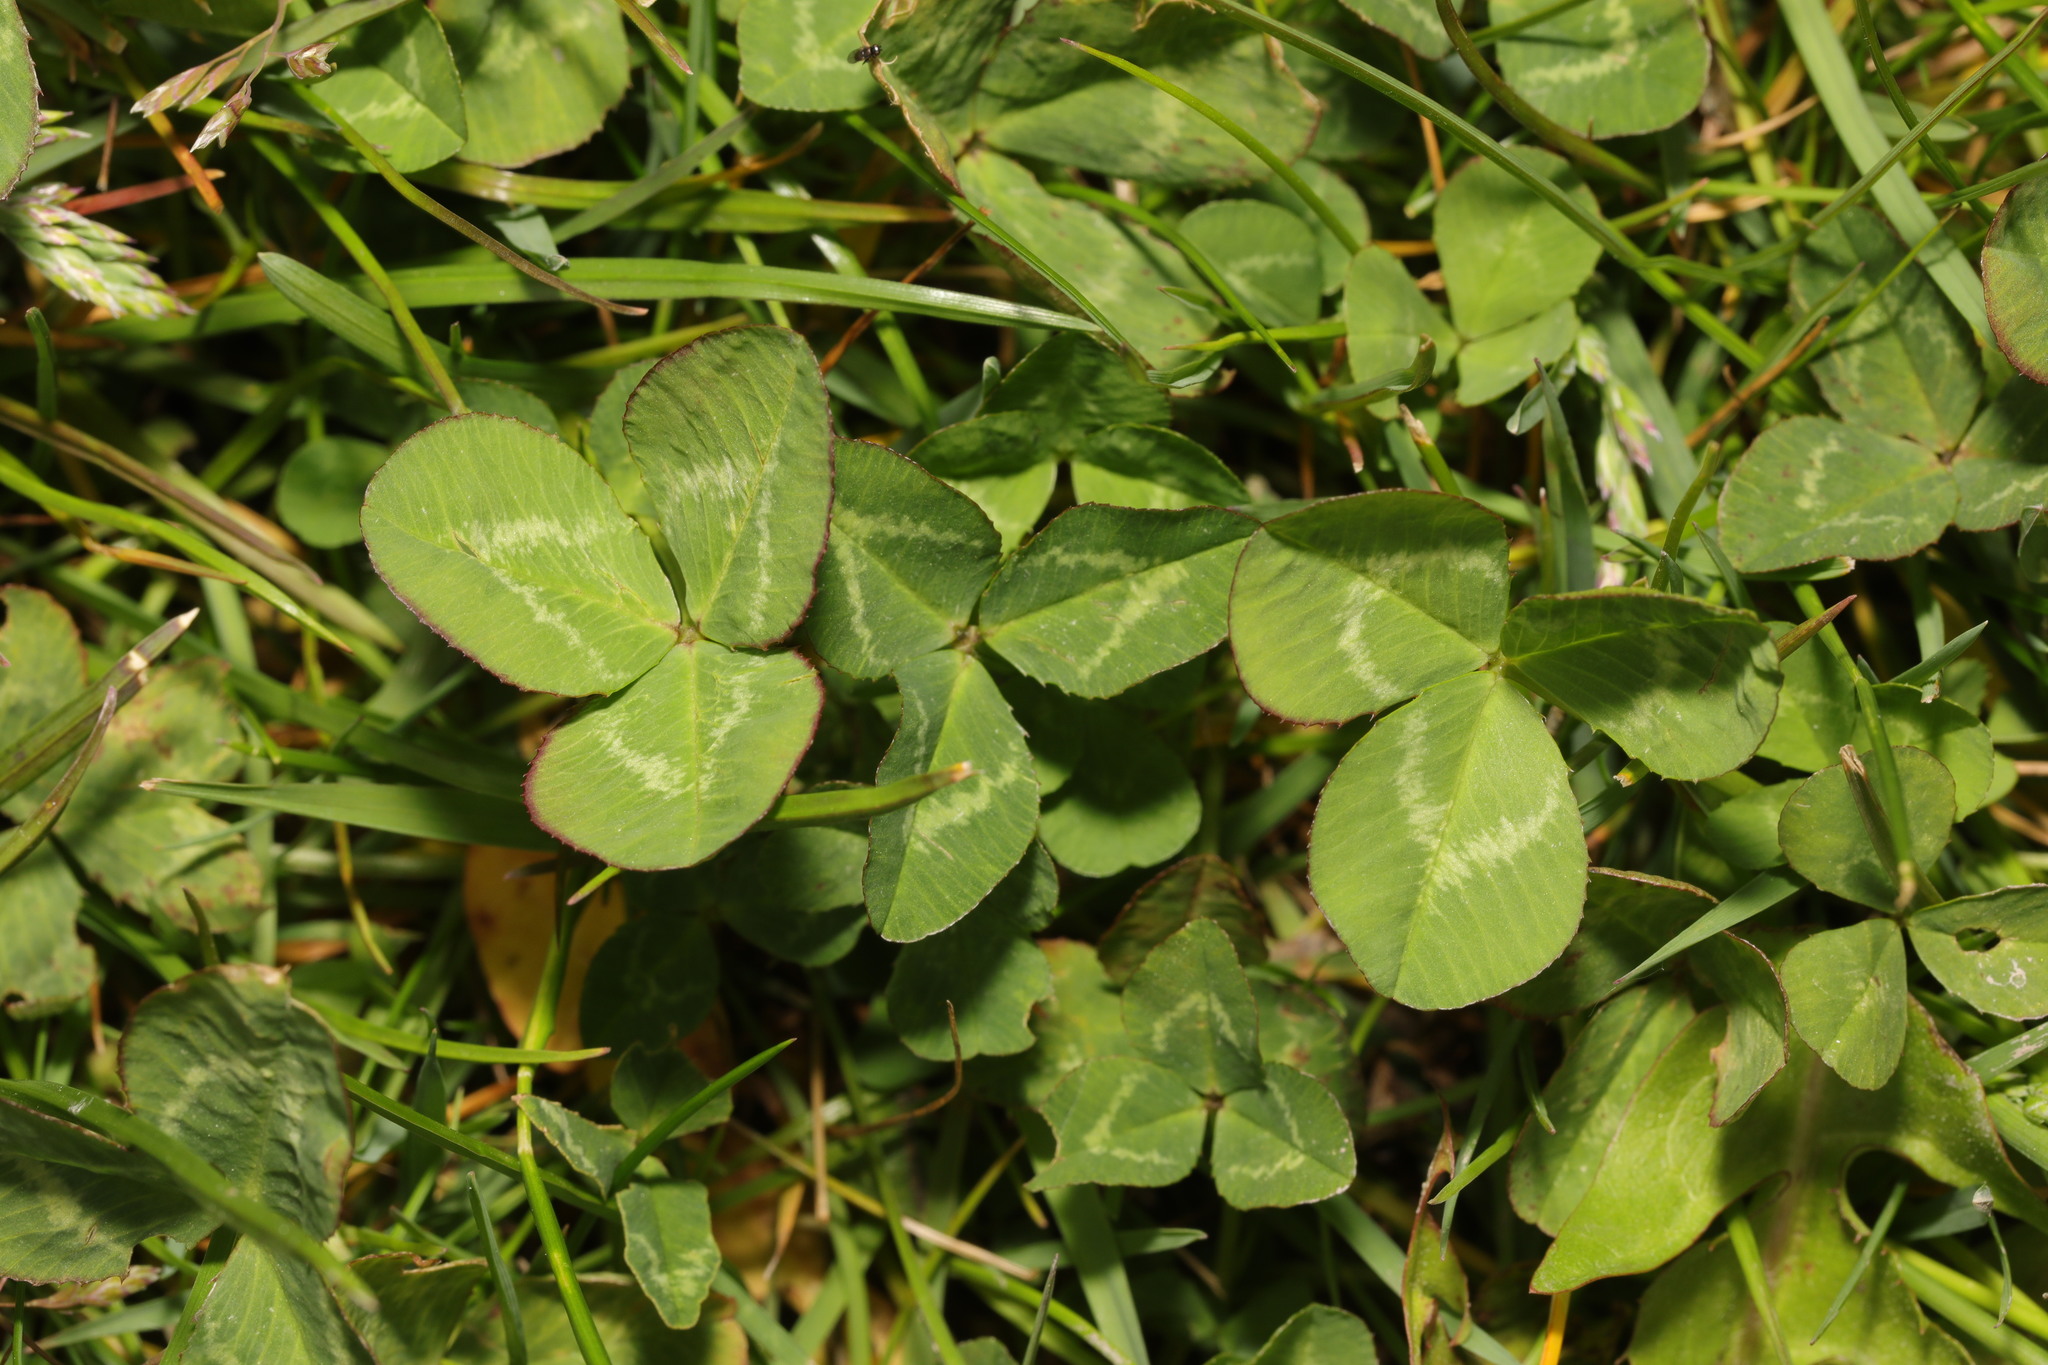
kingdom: Plantae
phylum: Tracheophyta
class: Magnoliopsida
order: Fabales
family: Fabaceae
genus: Trifolium
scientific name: Trifolium repens
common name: White clover
